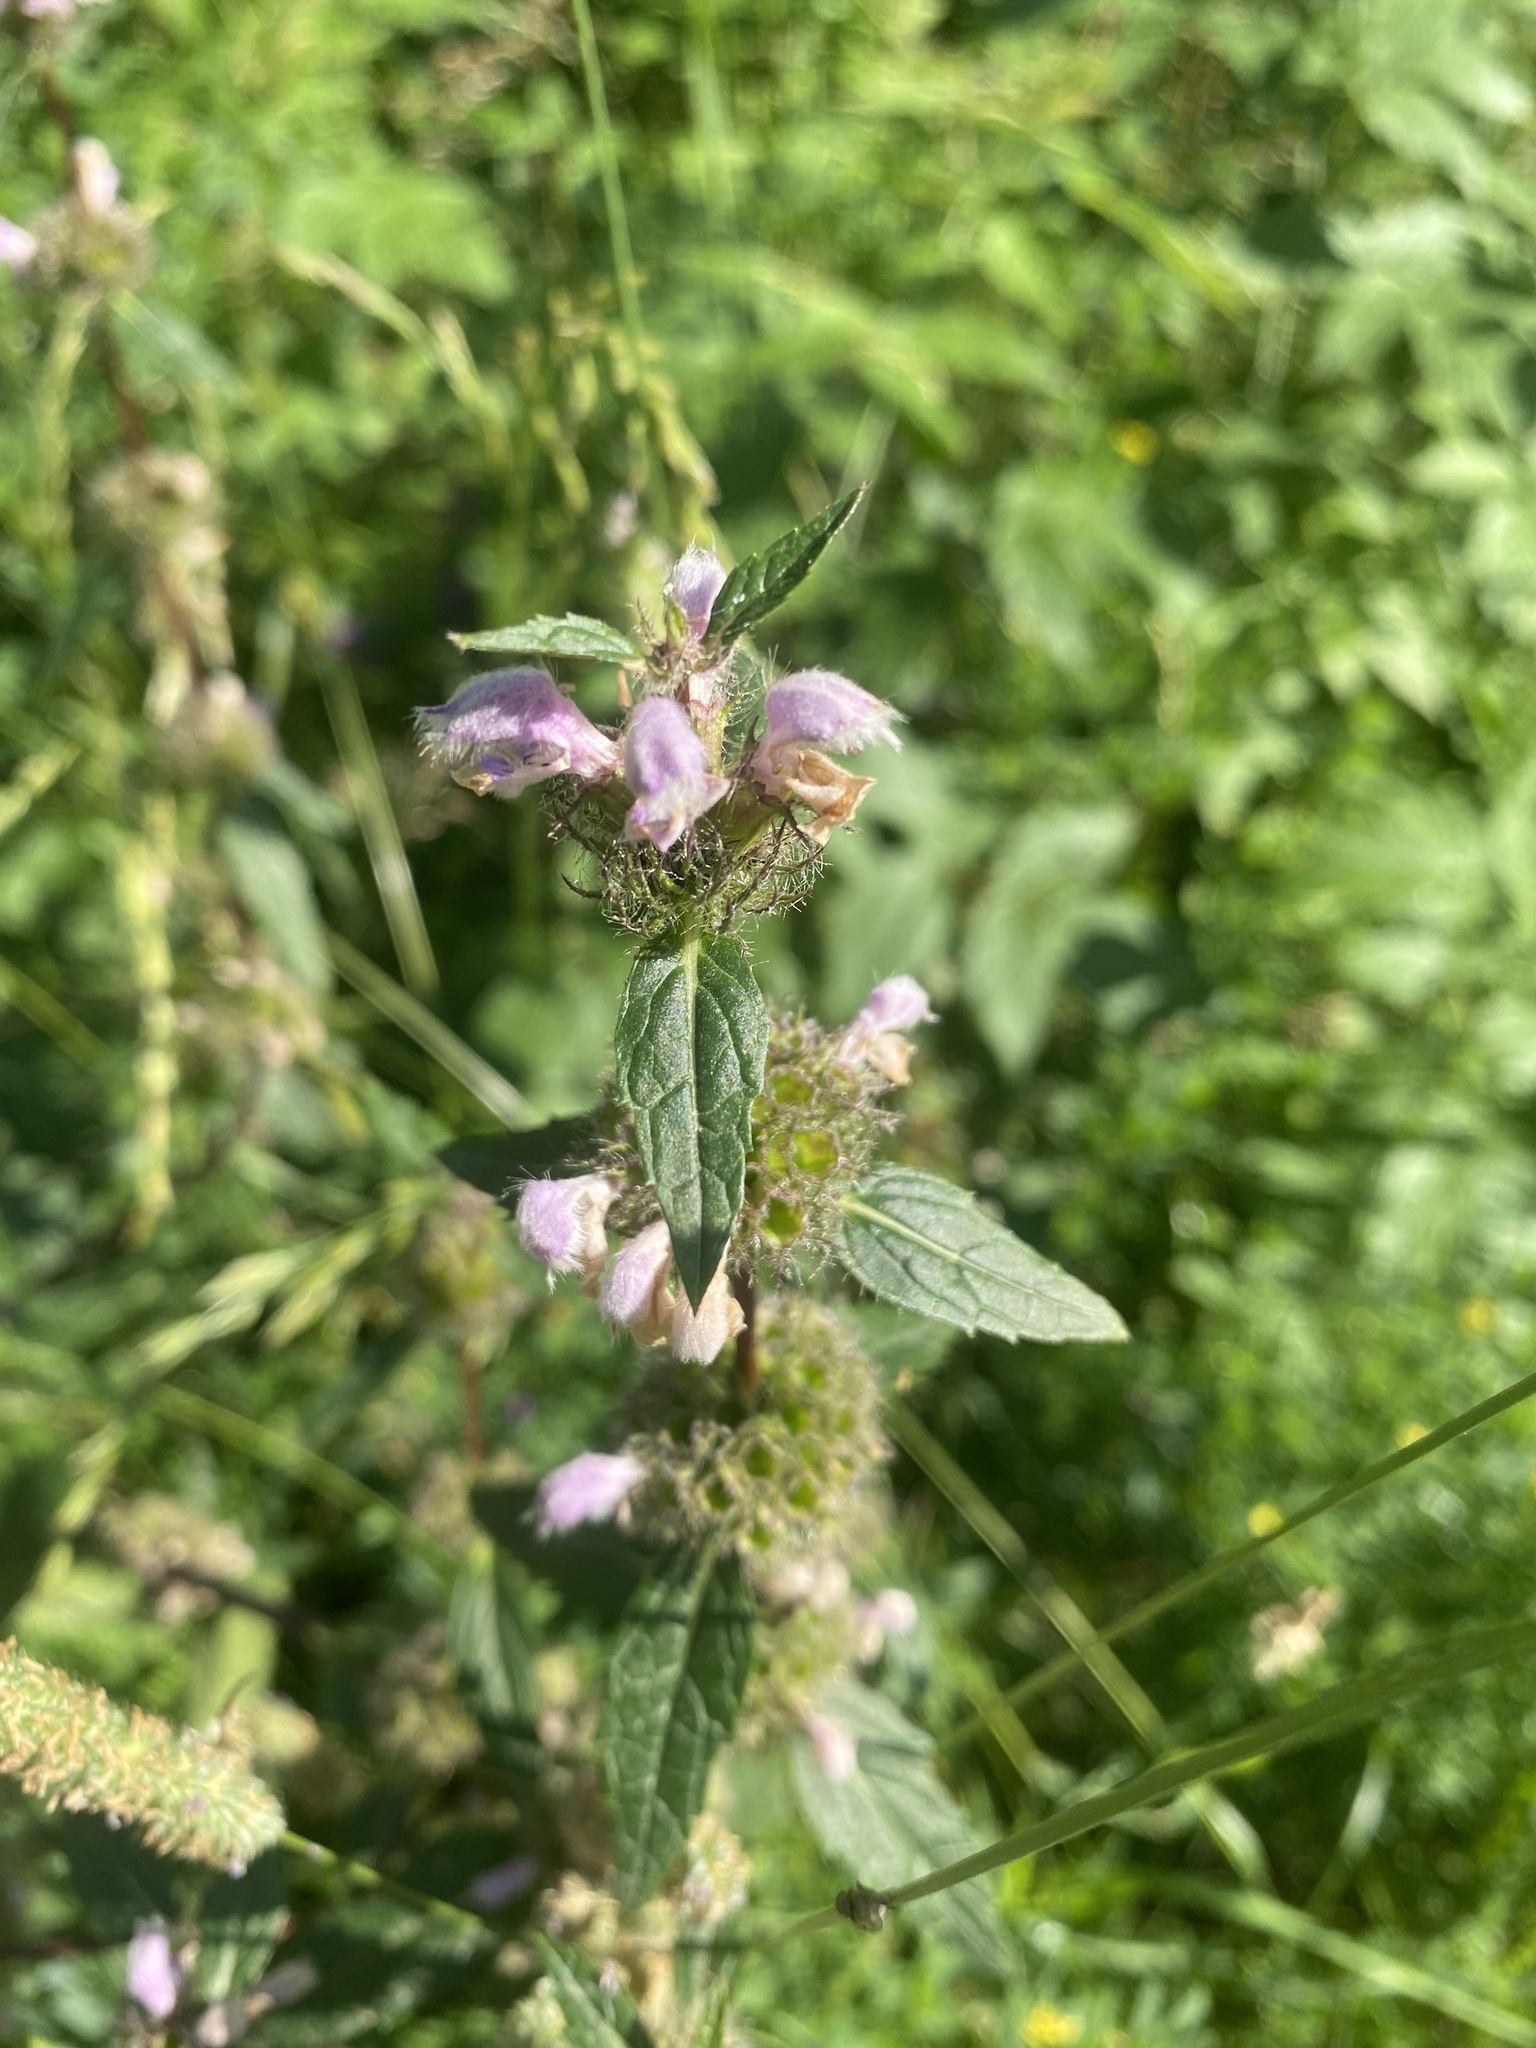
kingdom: Plantae
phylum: Tracheophyta
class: Magnoliopsida
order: Lamiales
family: Lamiaceae
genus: Phlomoides
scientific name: Phlomoides tuberosa
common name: Tuberous jerusalem sage
